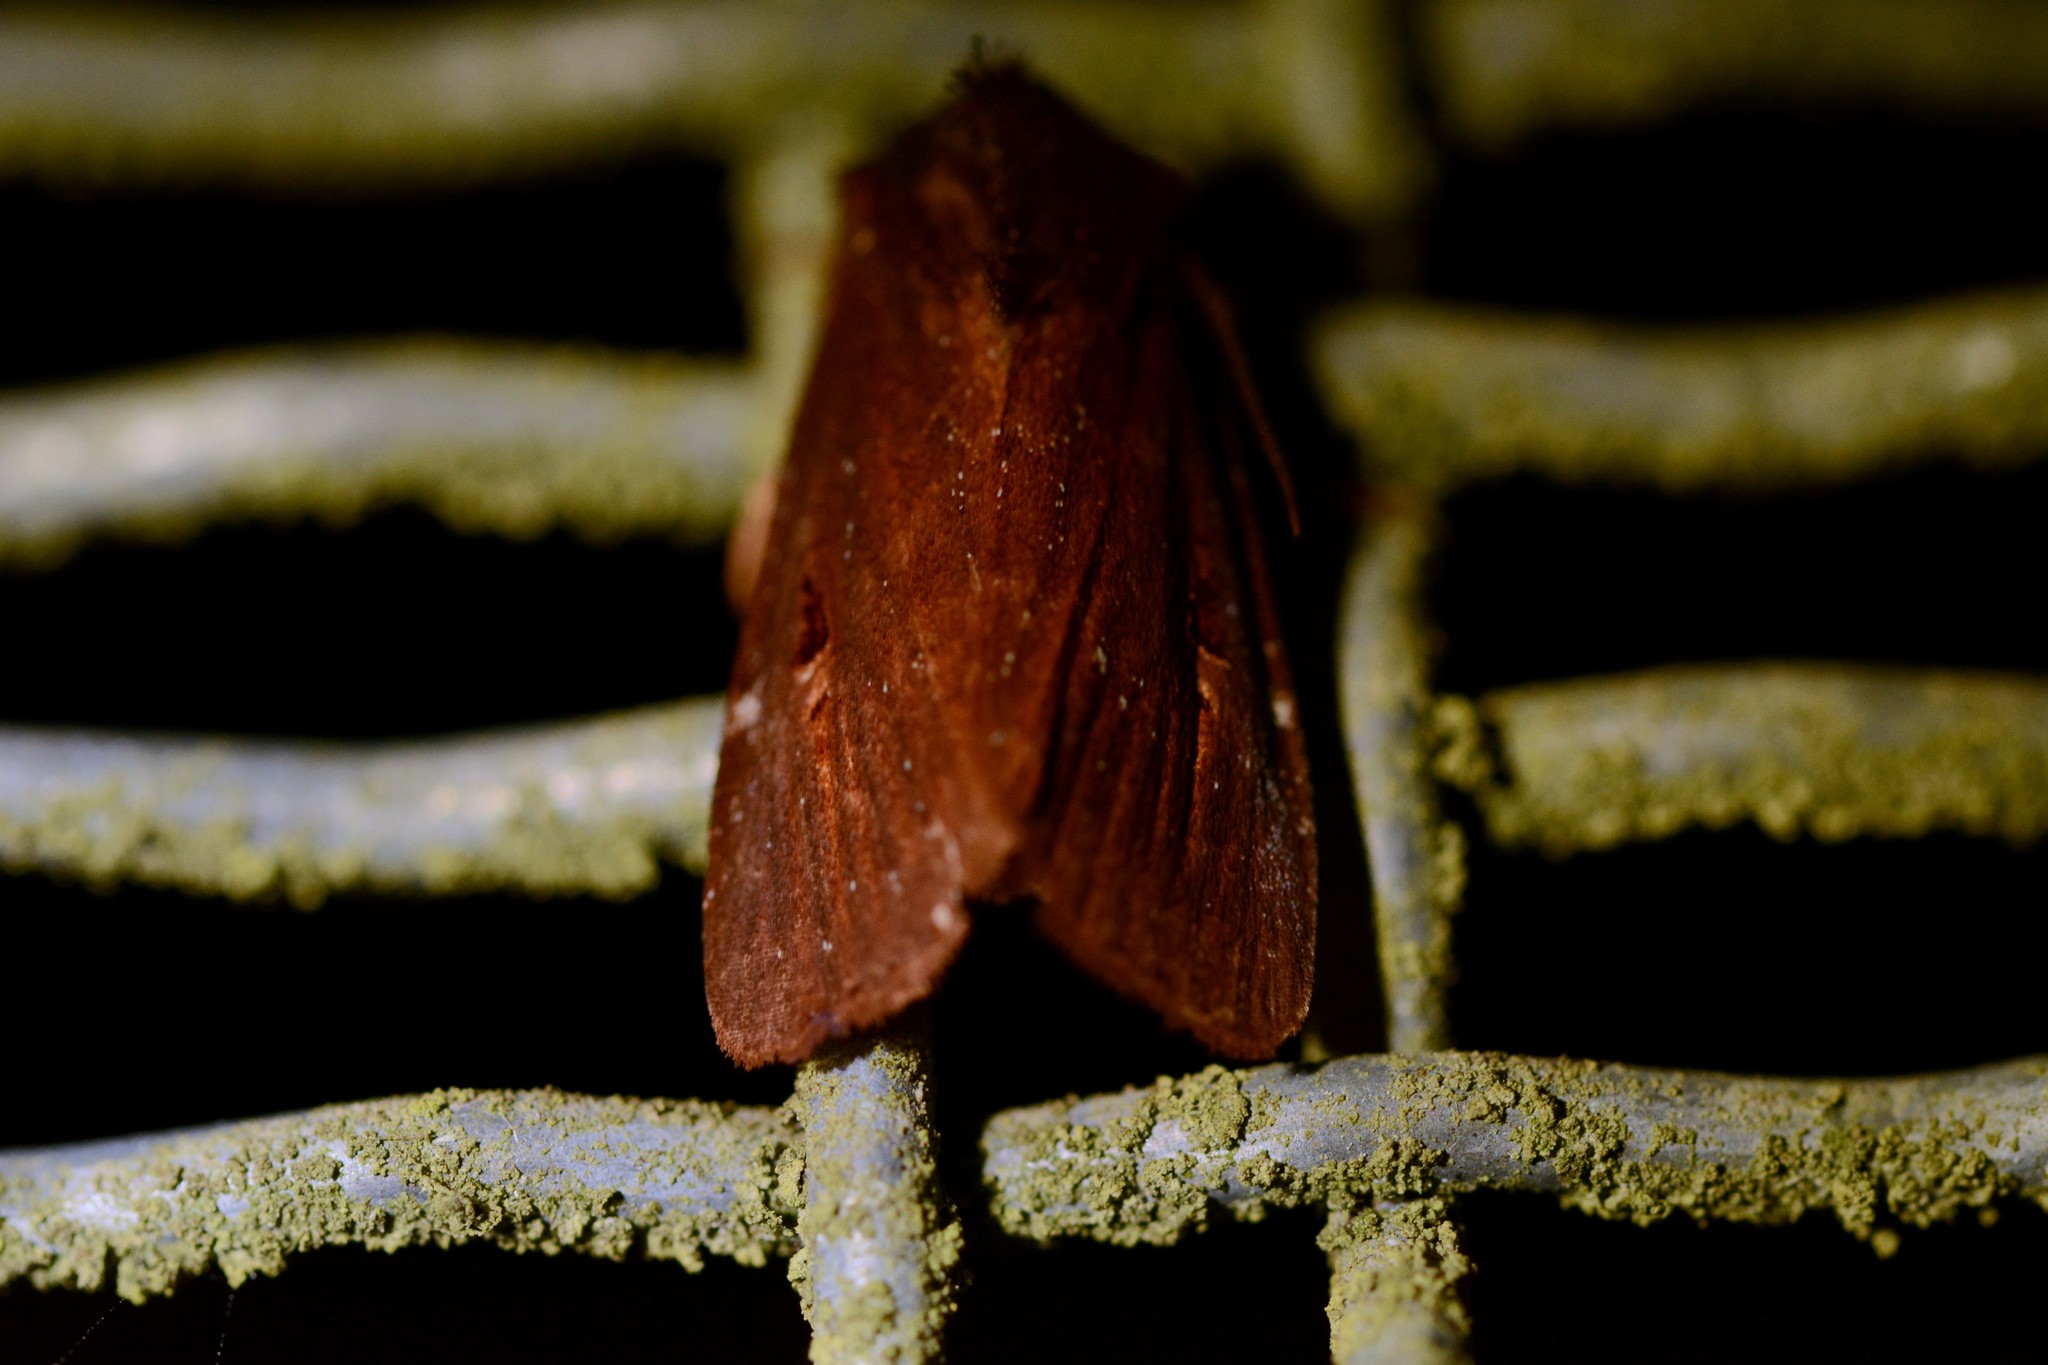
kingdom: Animalia
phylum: Arthropoda
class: Insecta
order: Lepidoptera
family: Noctuidae
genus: Austramathes
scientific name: Austramathes purpurea
